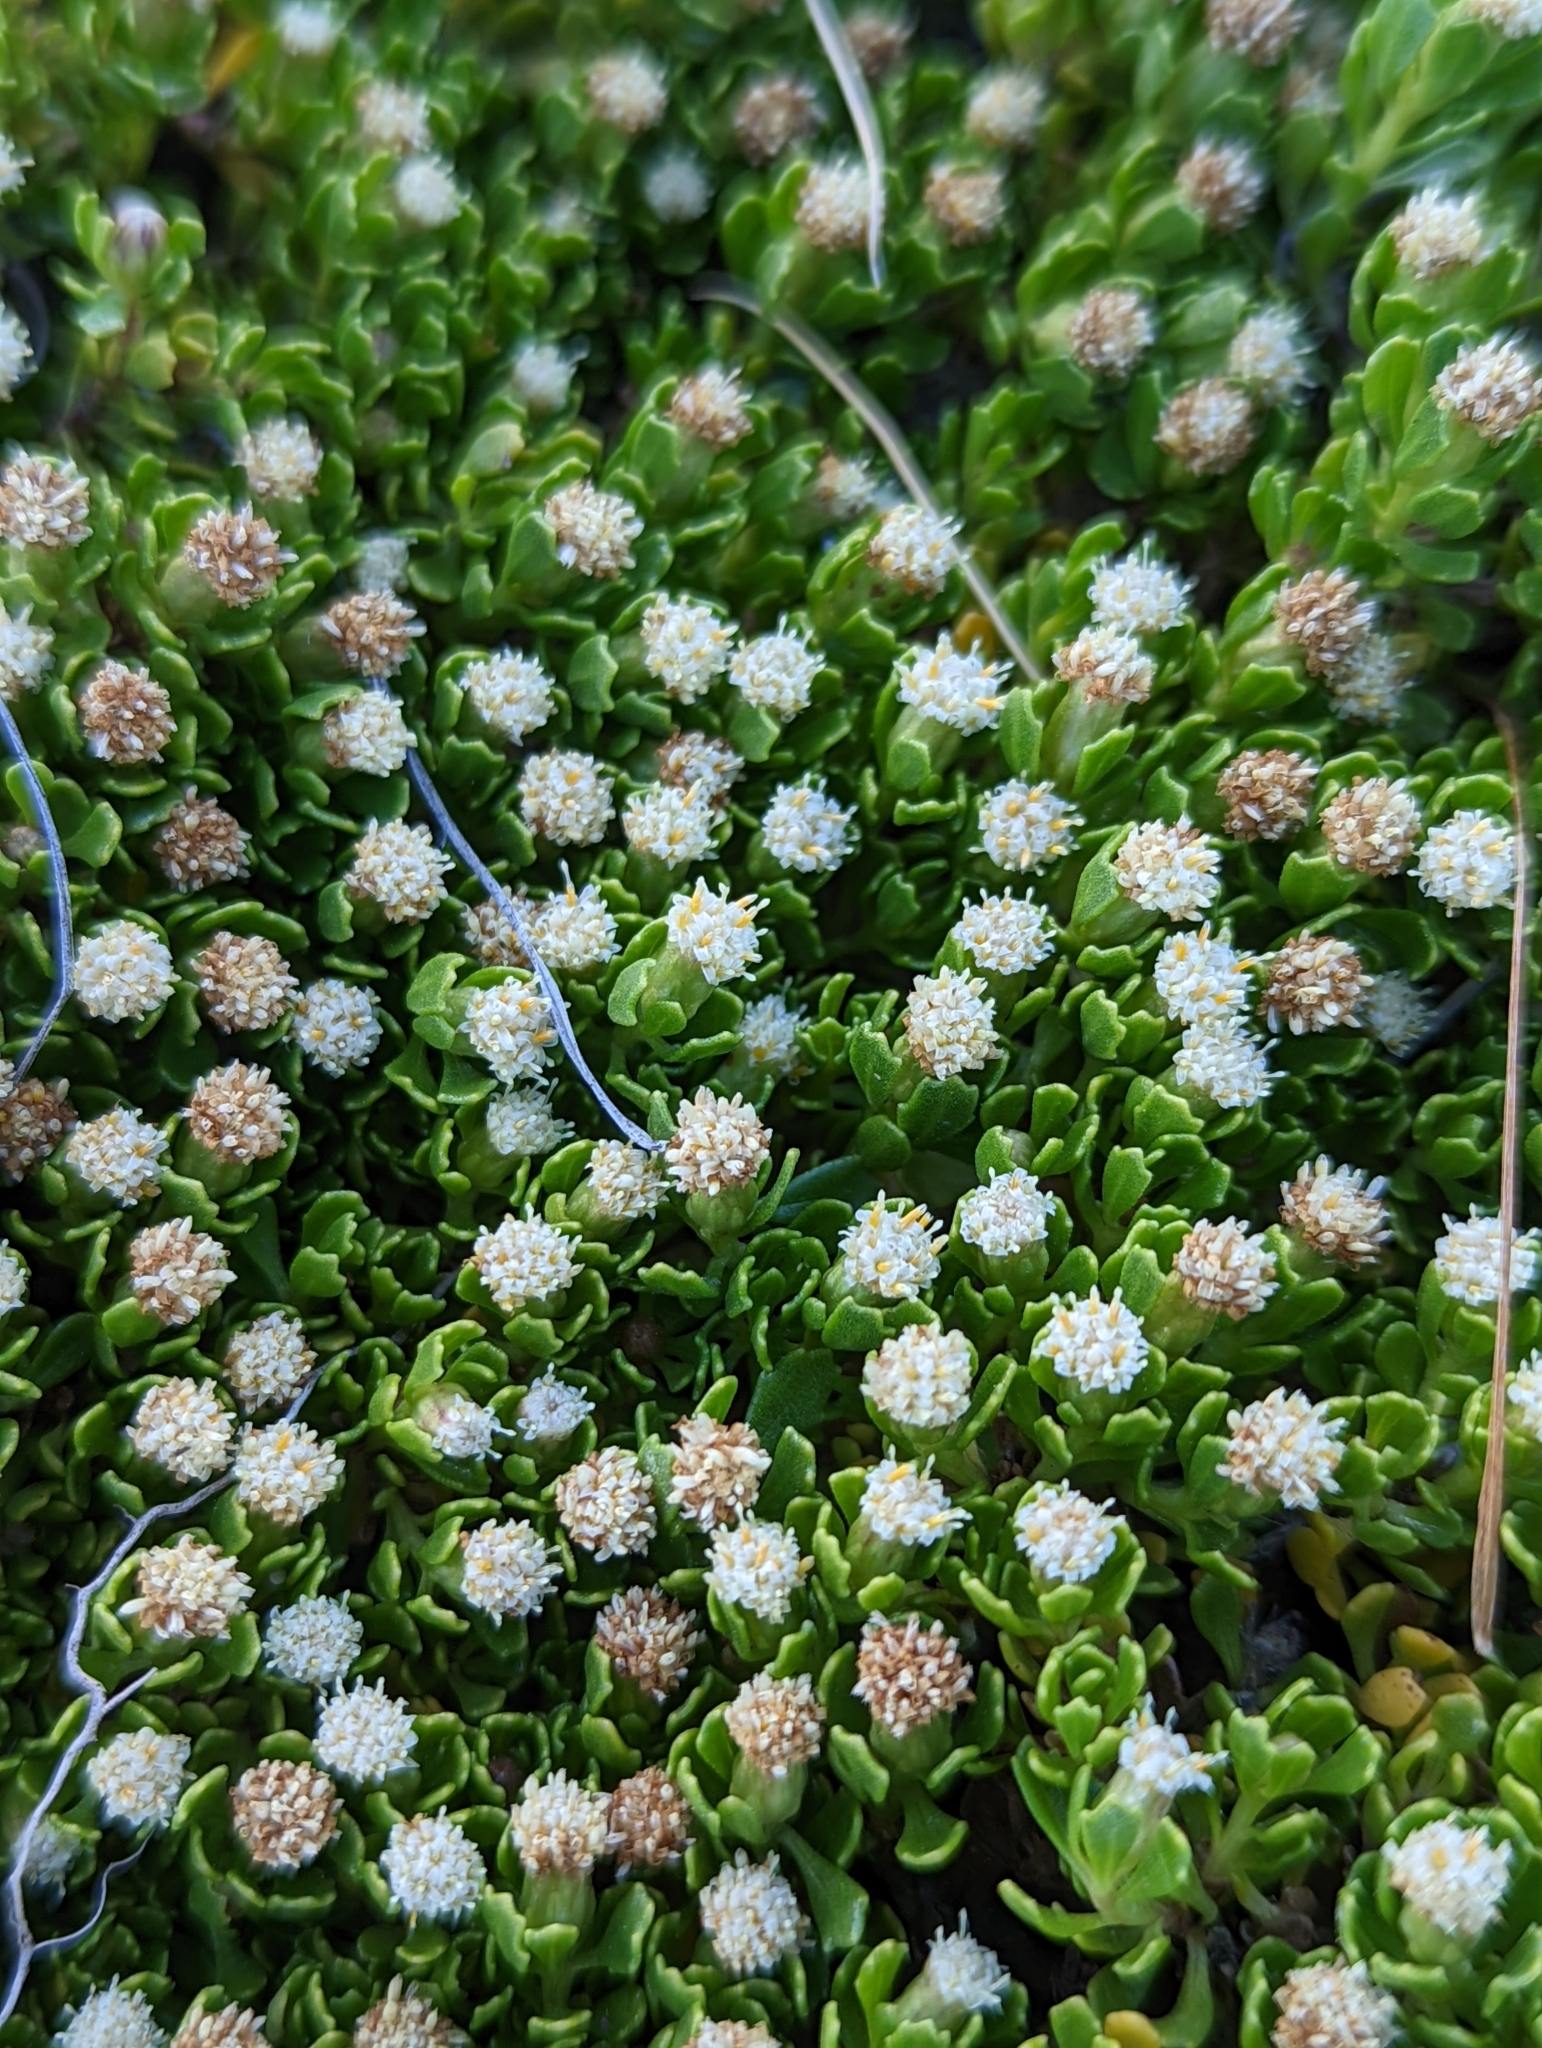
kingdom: Plantae
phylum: Tracheophyta
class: Magnoliopsida
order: Asterales
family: Asteraceae
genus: Baccharis
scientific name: Baccharis magellanica
